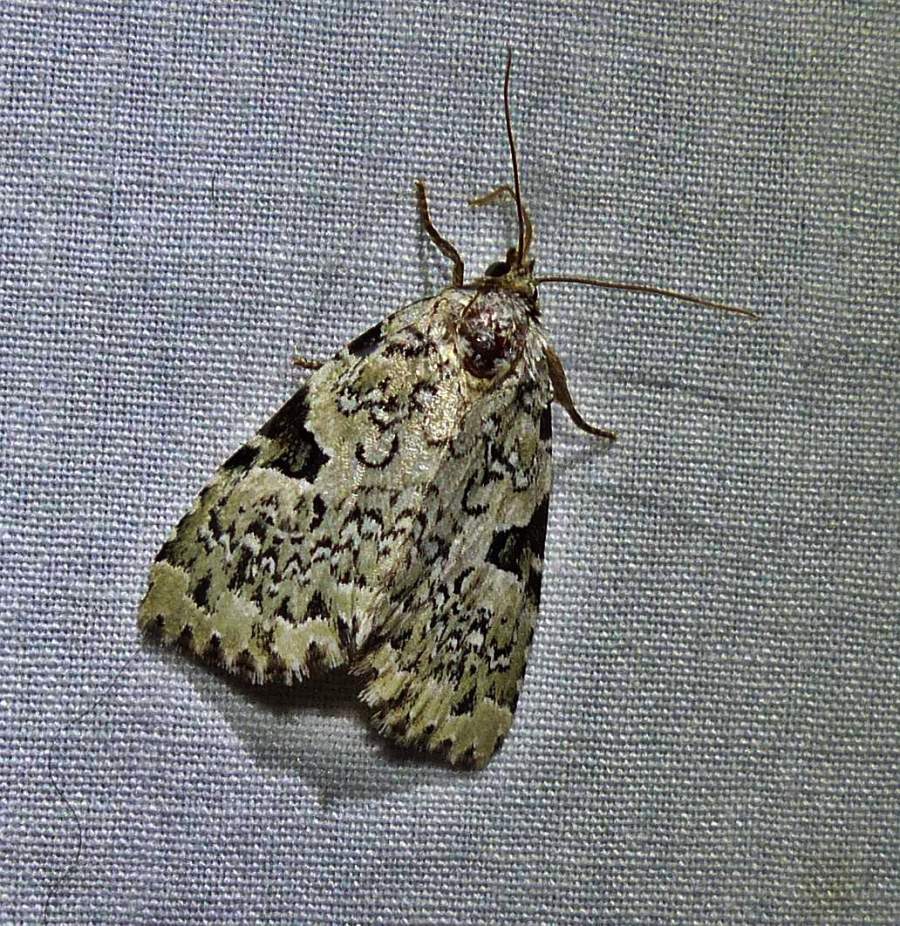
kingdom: Animalia
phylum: Arthropoda
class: Insecta
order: Lepidoptera
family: Noctuidae
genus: Leuconycta
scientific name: Leuconycta diphteroides
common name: Green leuconycta moth
